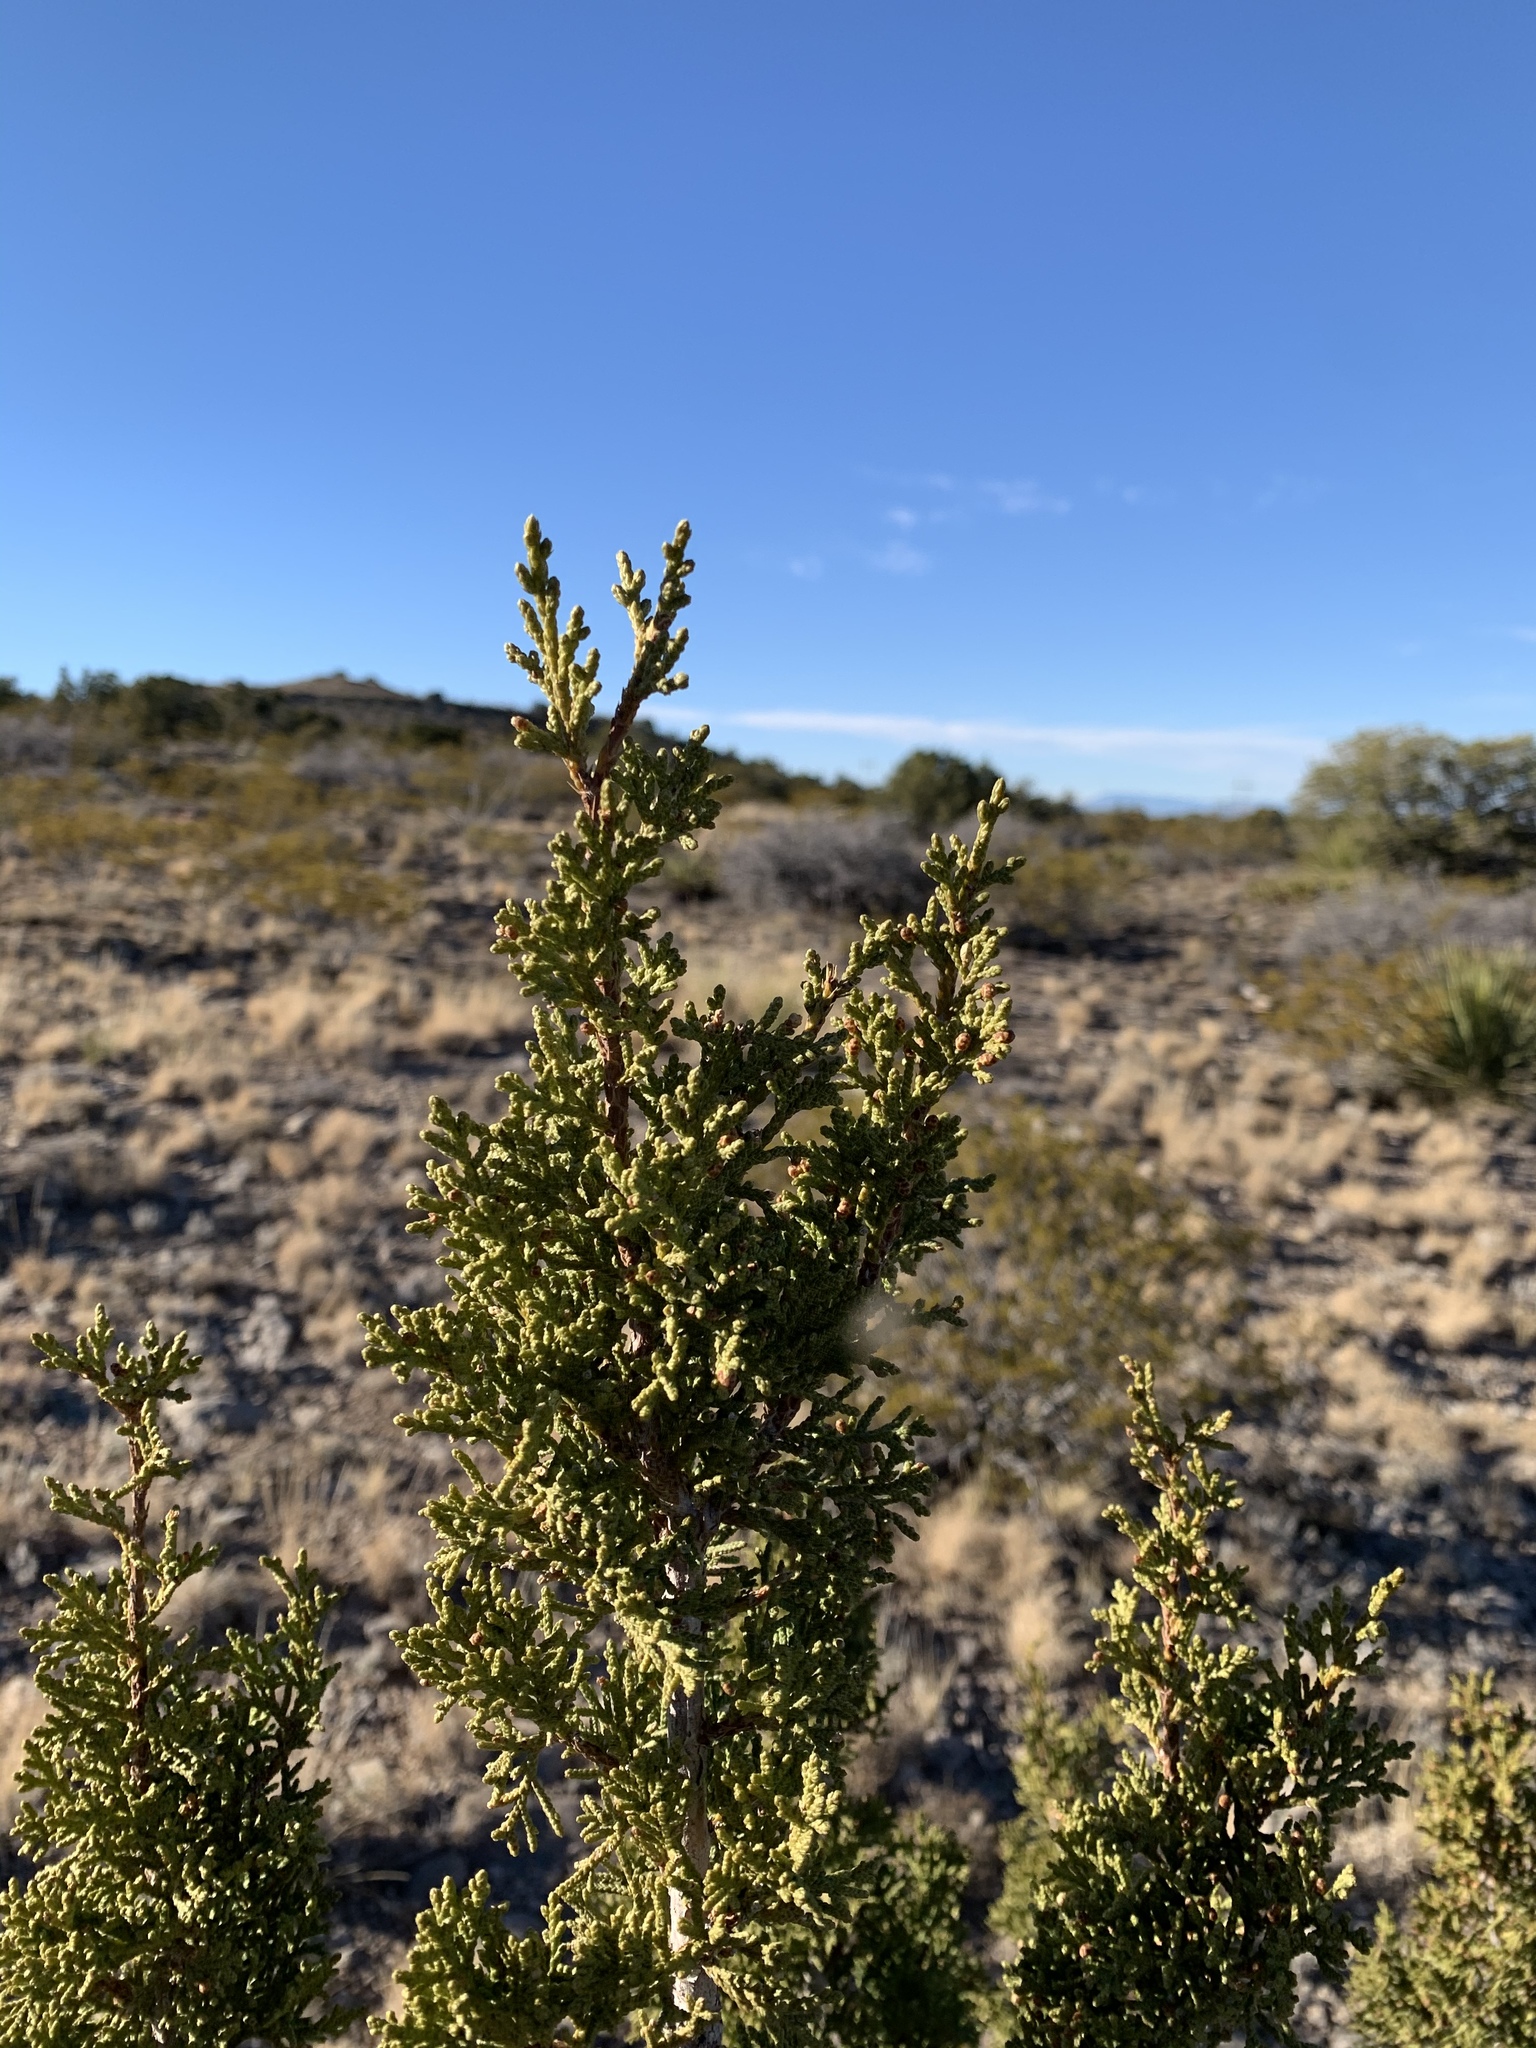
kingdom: Plantae
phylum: Tracheophyta
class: Pinopsida
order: Pinales
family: Cupressaceae
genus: Juniperus
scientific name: Juniperus monosperma
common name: One-seed juniper
